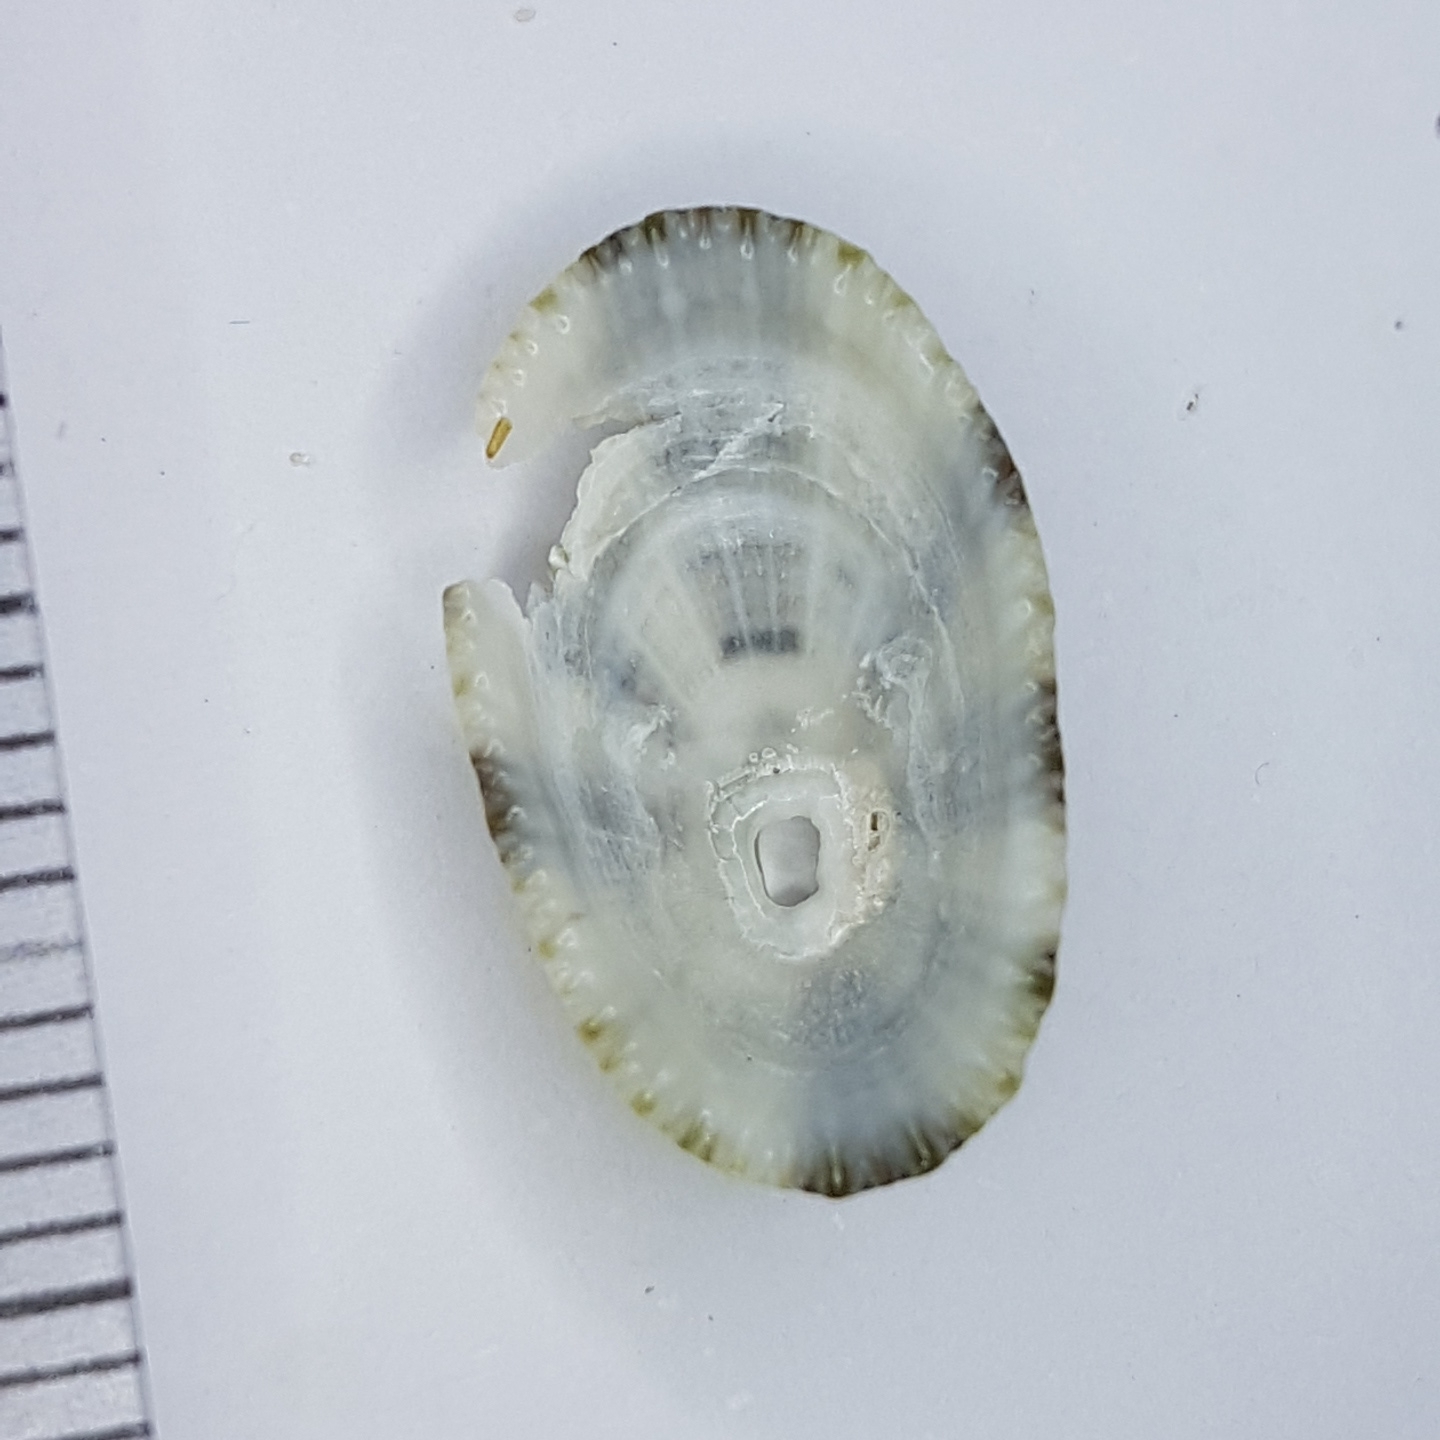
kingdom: Animalia
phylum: Mollusca
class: Gastropoda
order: Lepetellida
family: Fissurellidae
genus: Diodora
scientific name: Diodora graeca
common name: Common keyhole limpet
